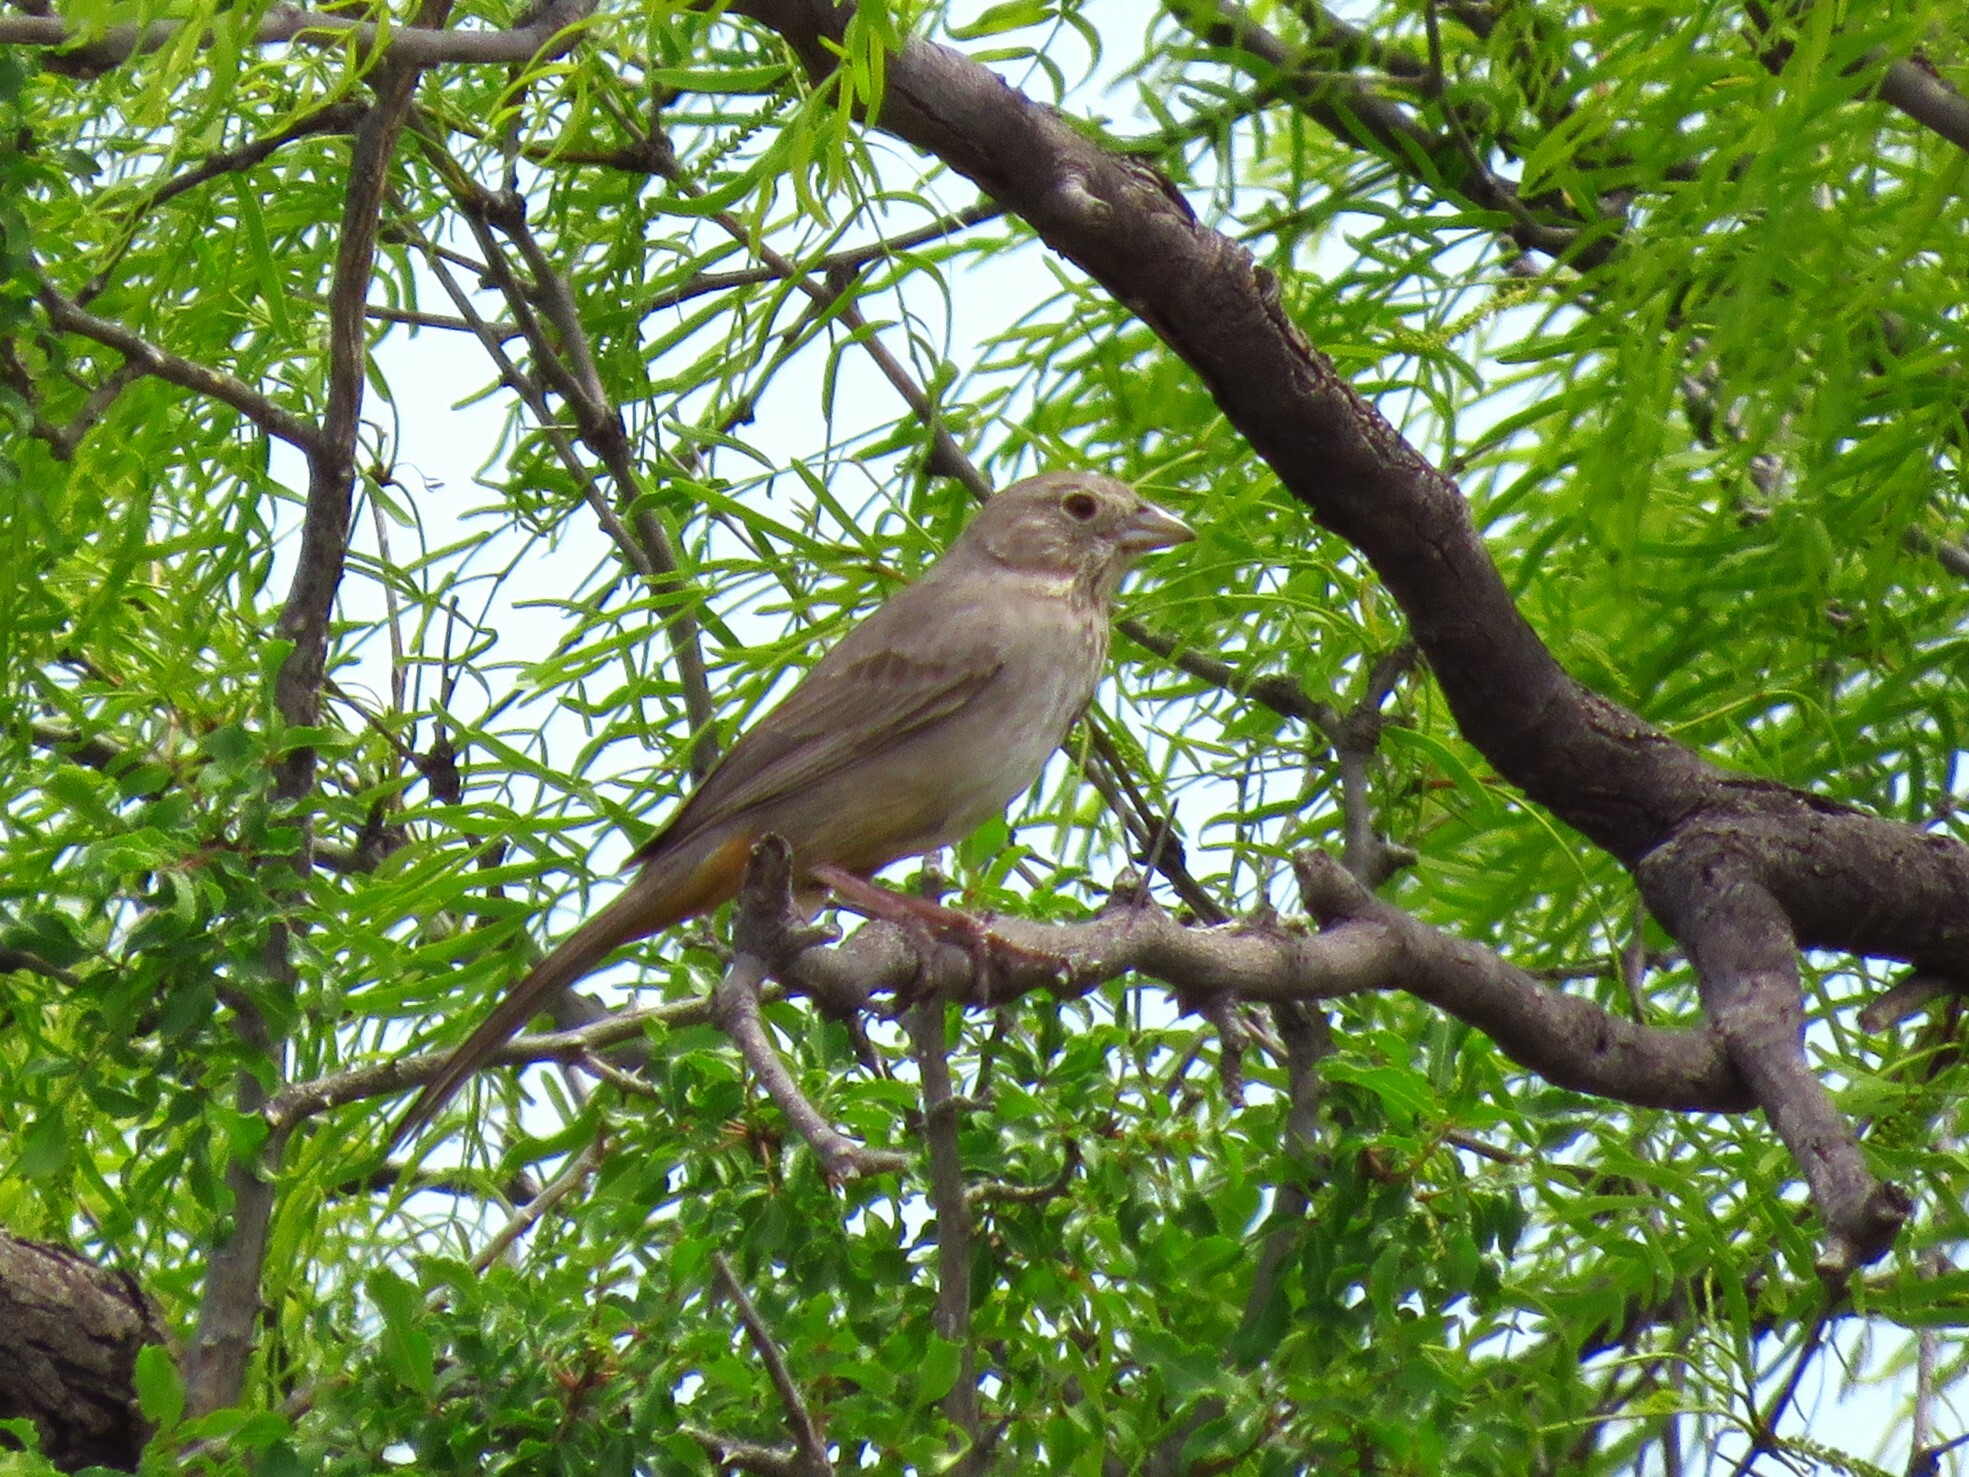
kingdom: Animalia
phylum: Chordata
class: Aves
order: Passeriformes
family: Passerellidae
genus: Melozone
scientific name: Melozone fusca
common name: Canyon towhee
